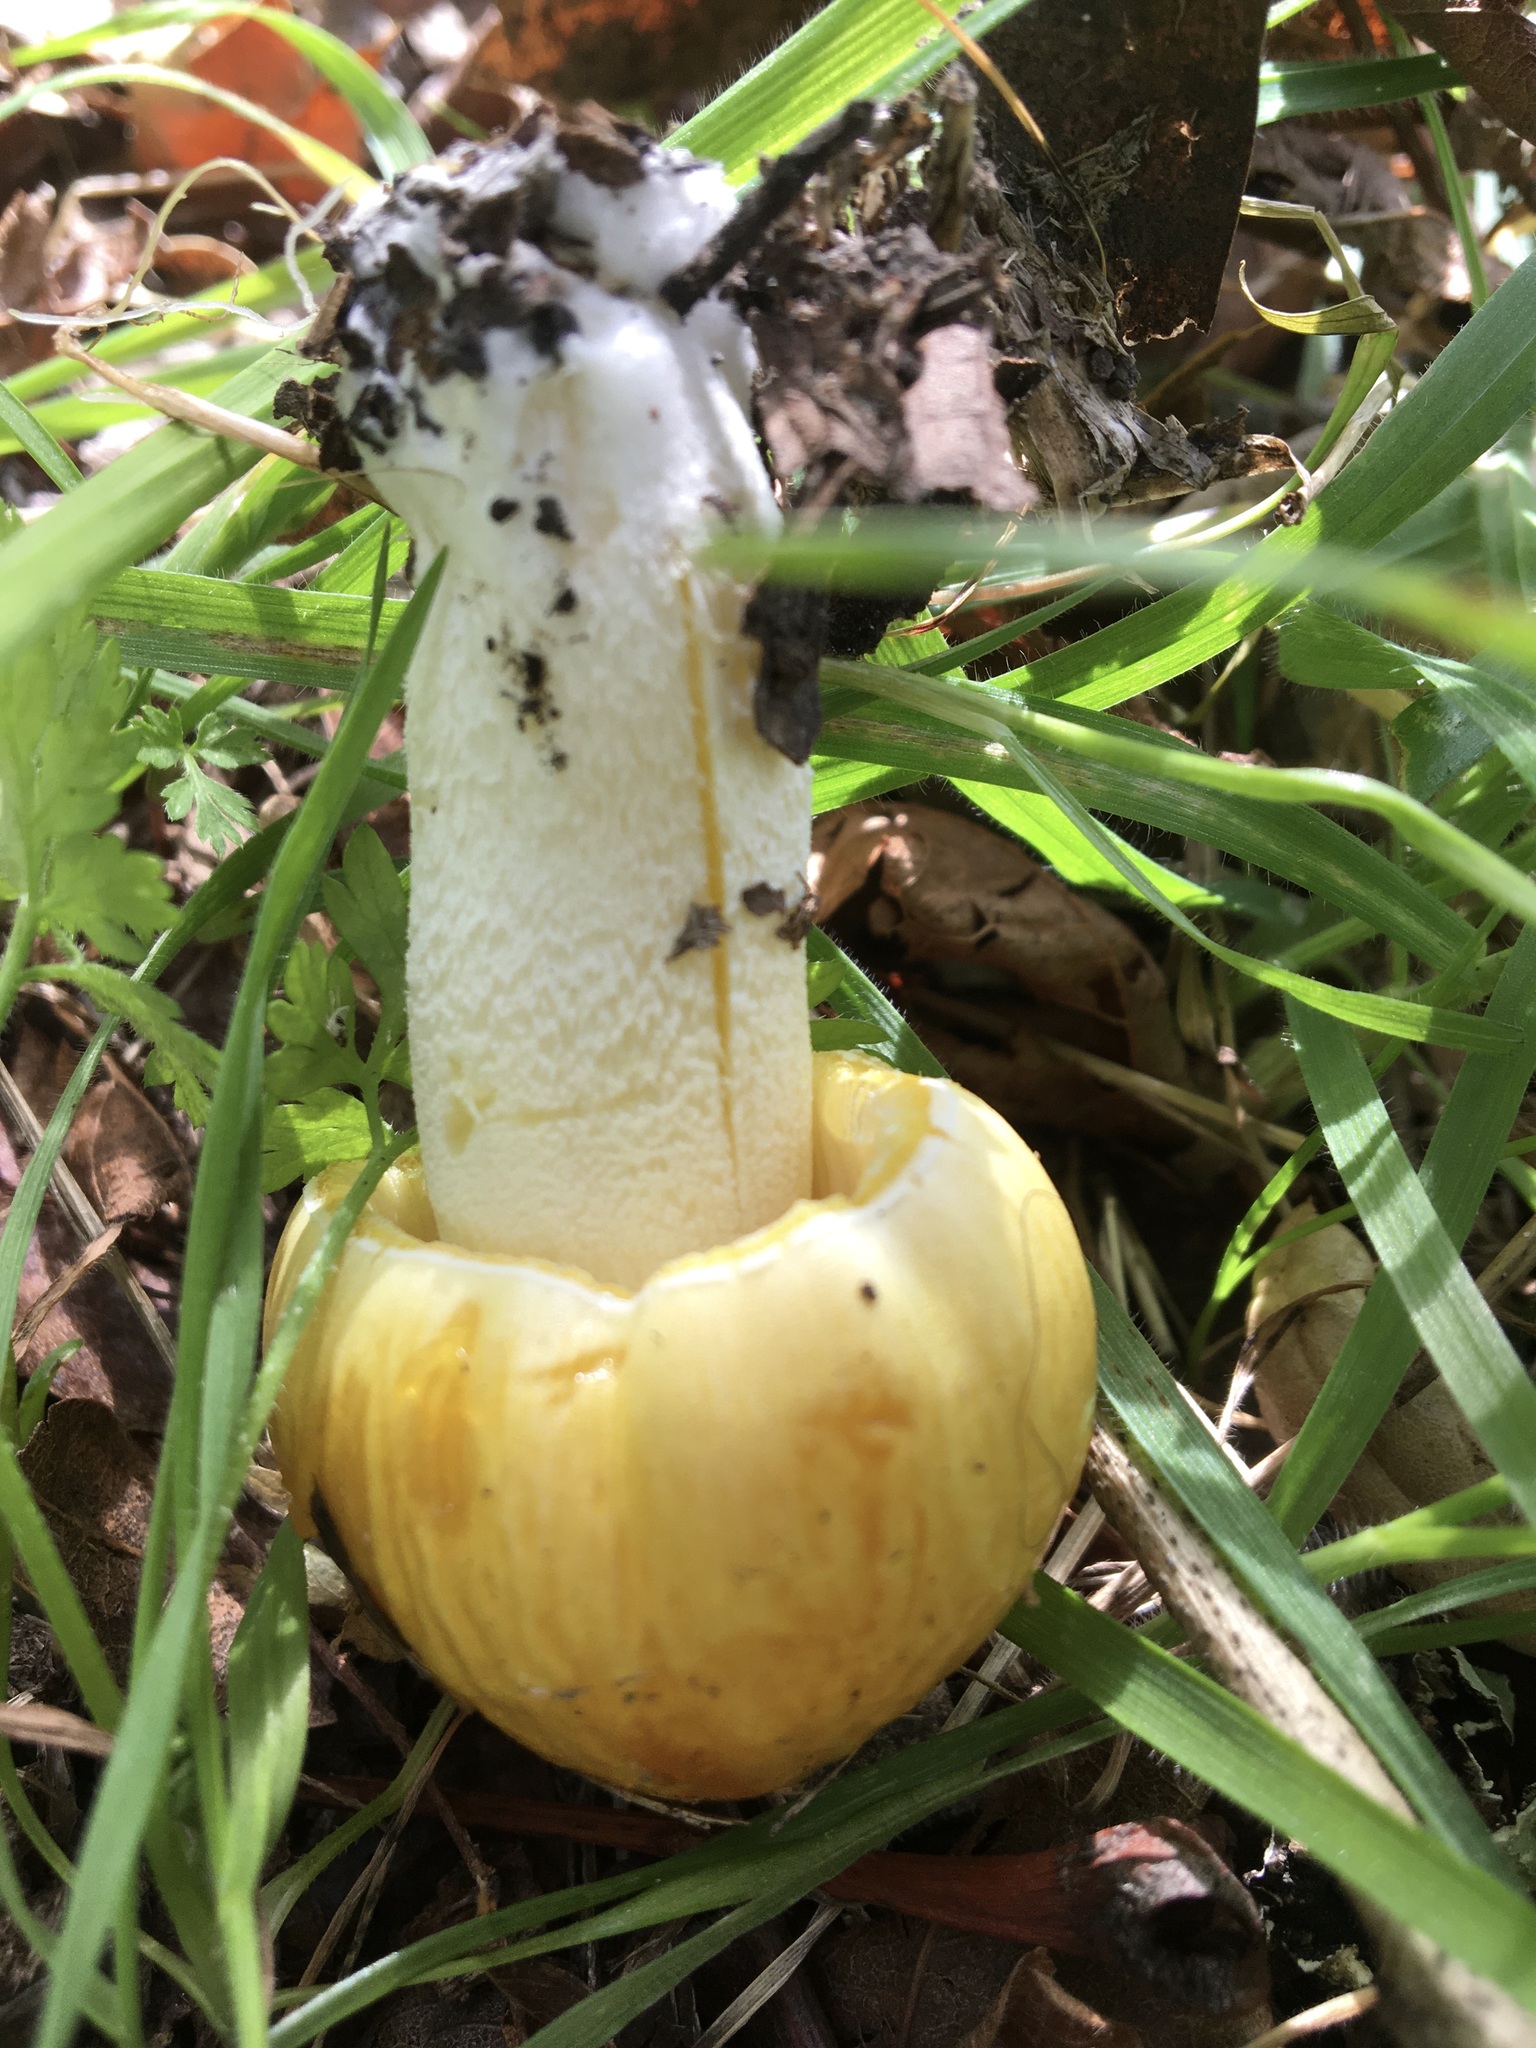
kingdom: Fungi
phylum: Basidiomycota
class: Agaricomycetes
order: Agaricales
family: Bolbitiaceae
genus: Bolbitius
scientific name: Bolbitius titubans
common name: Yellow fieldcap
